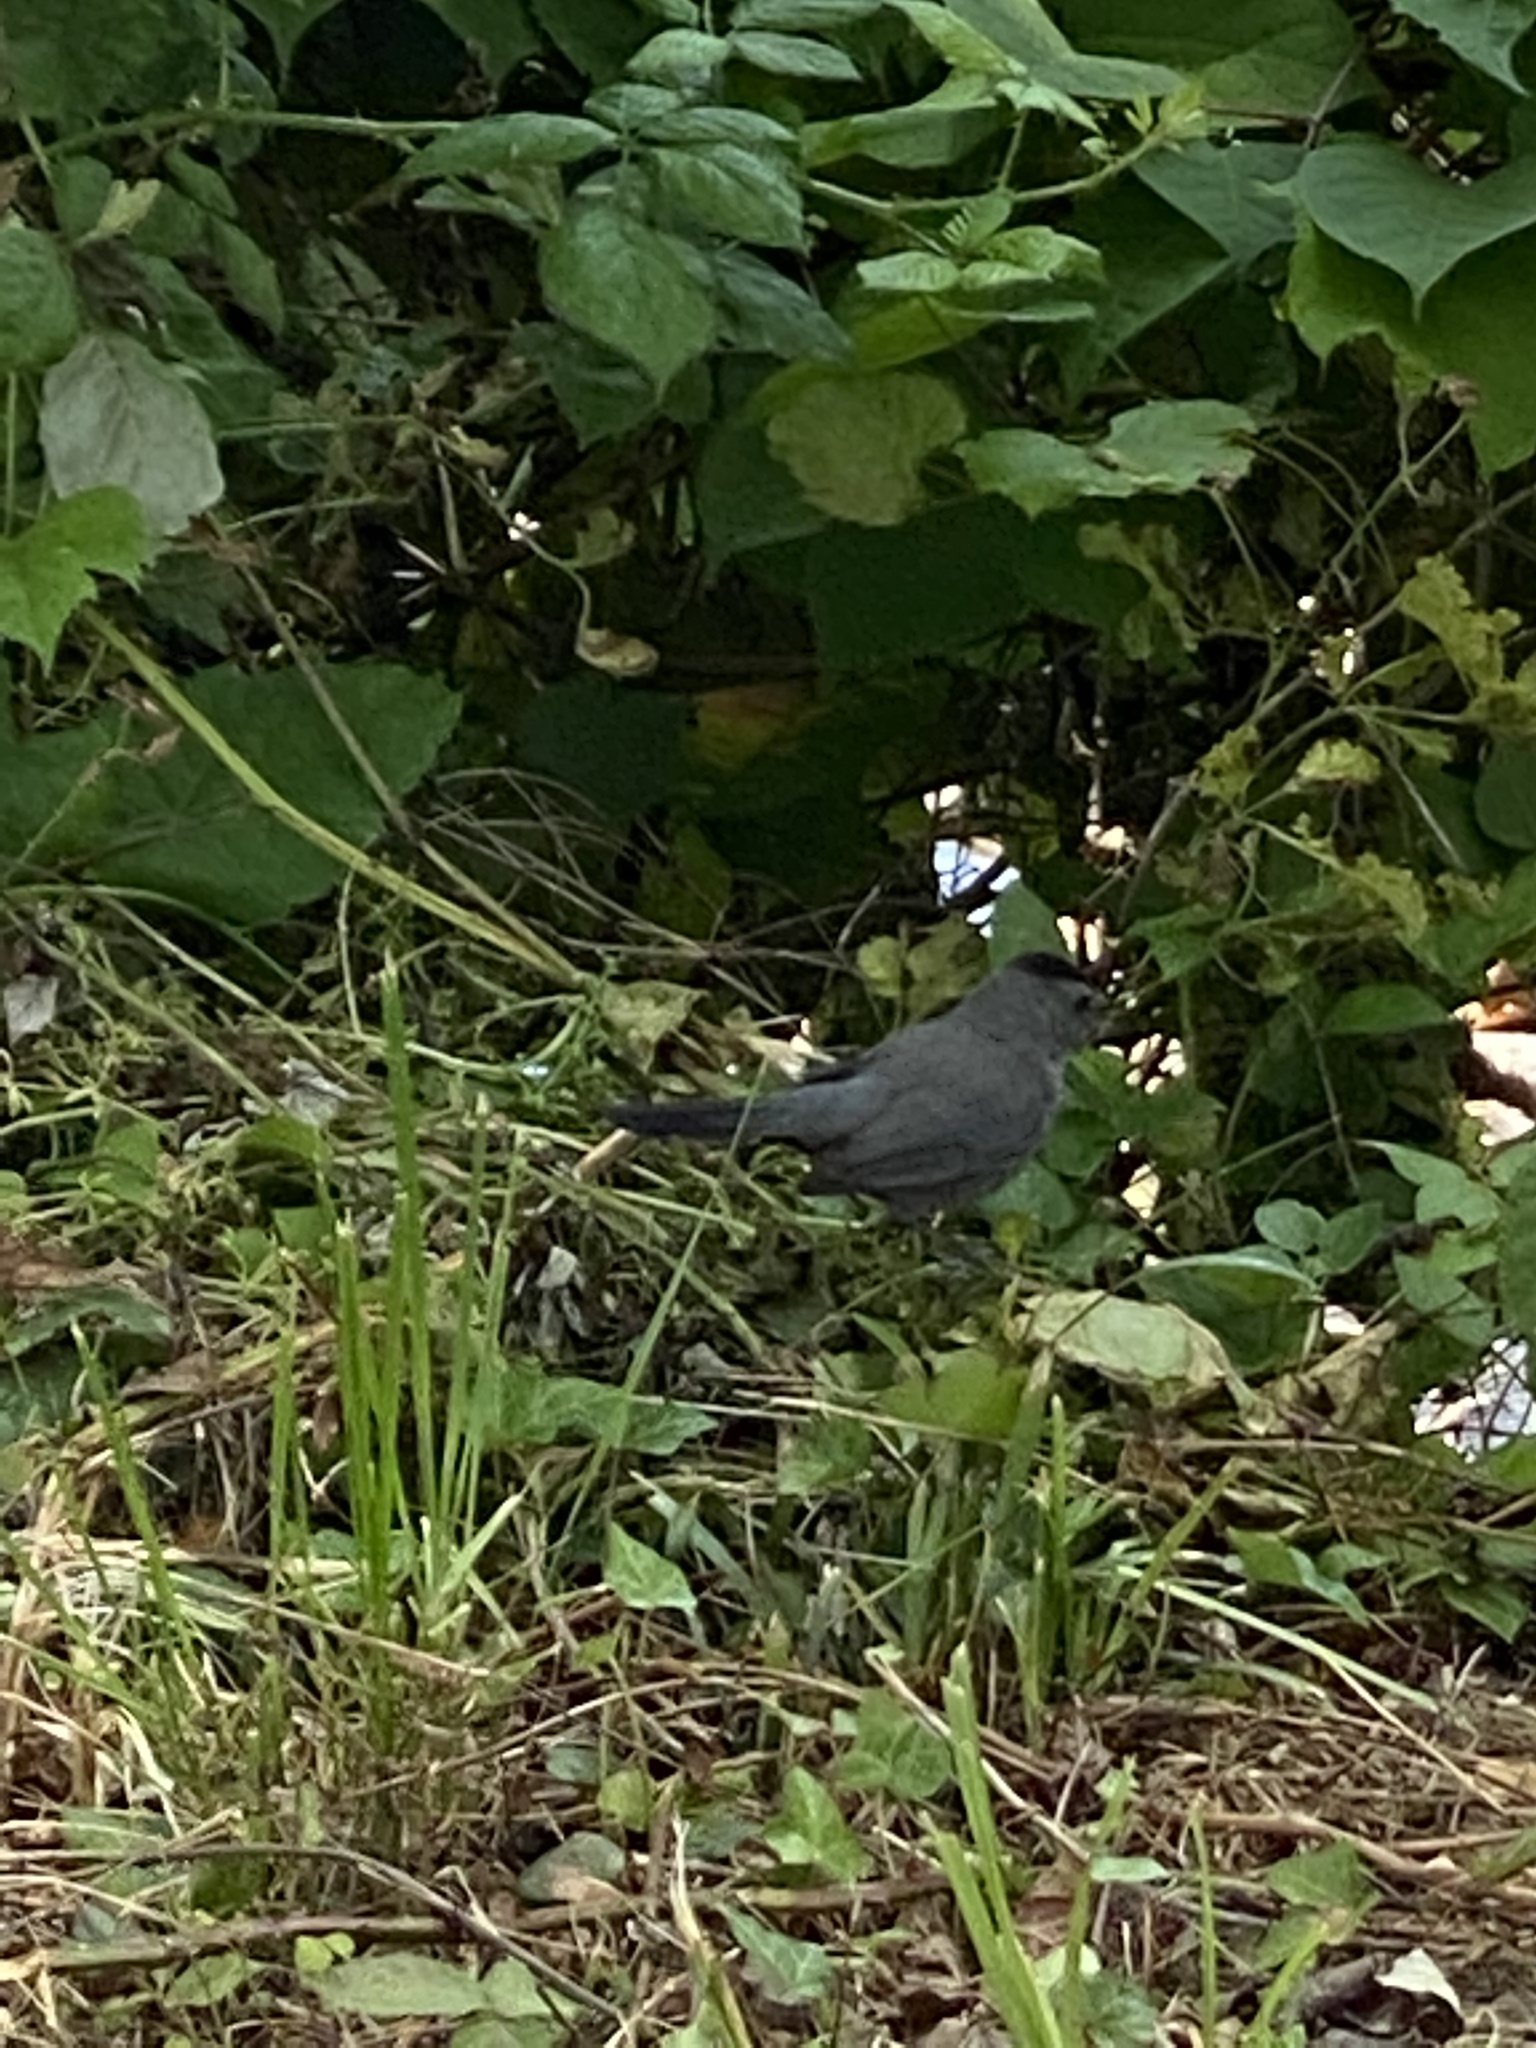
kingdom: Animalia
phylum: Chordata
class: Aves
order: Passeriformes
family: Mimidae
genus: Dumetella
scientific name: Dumetella carolinensis
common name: Gray catbird
